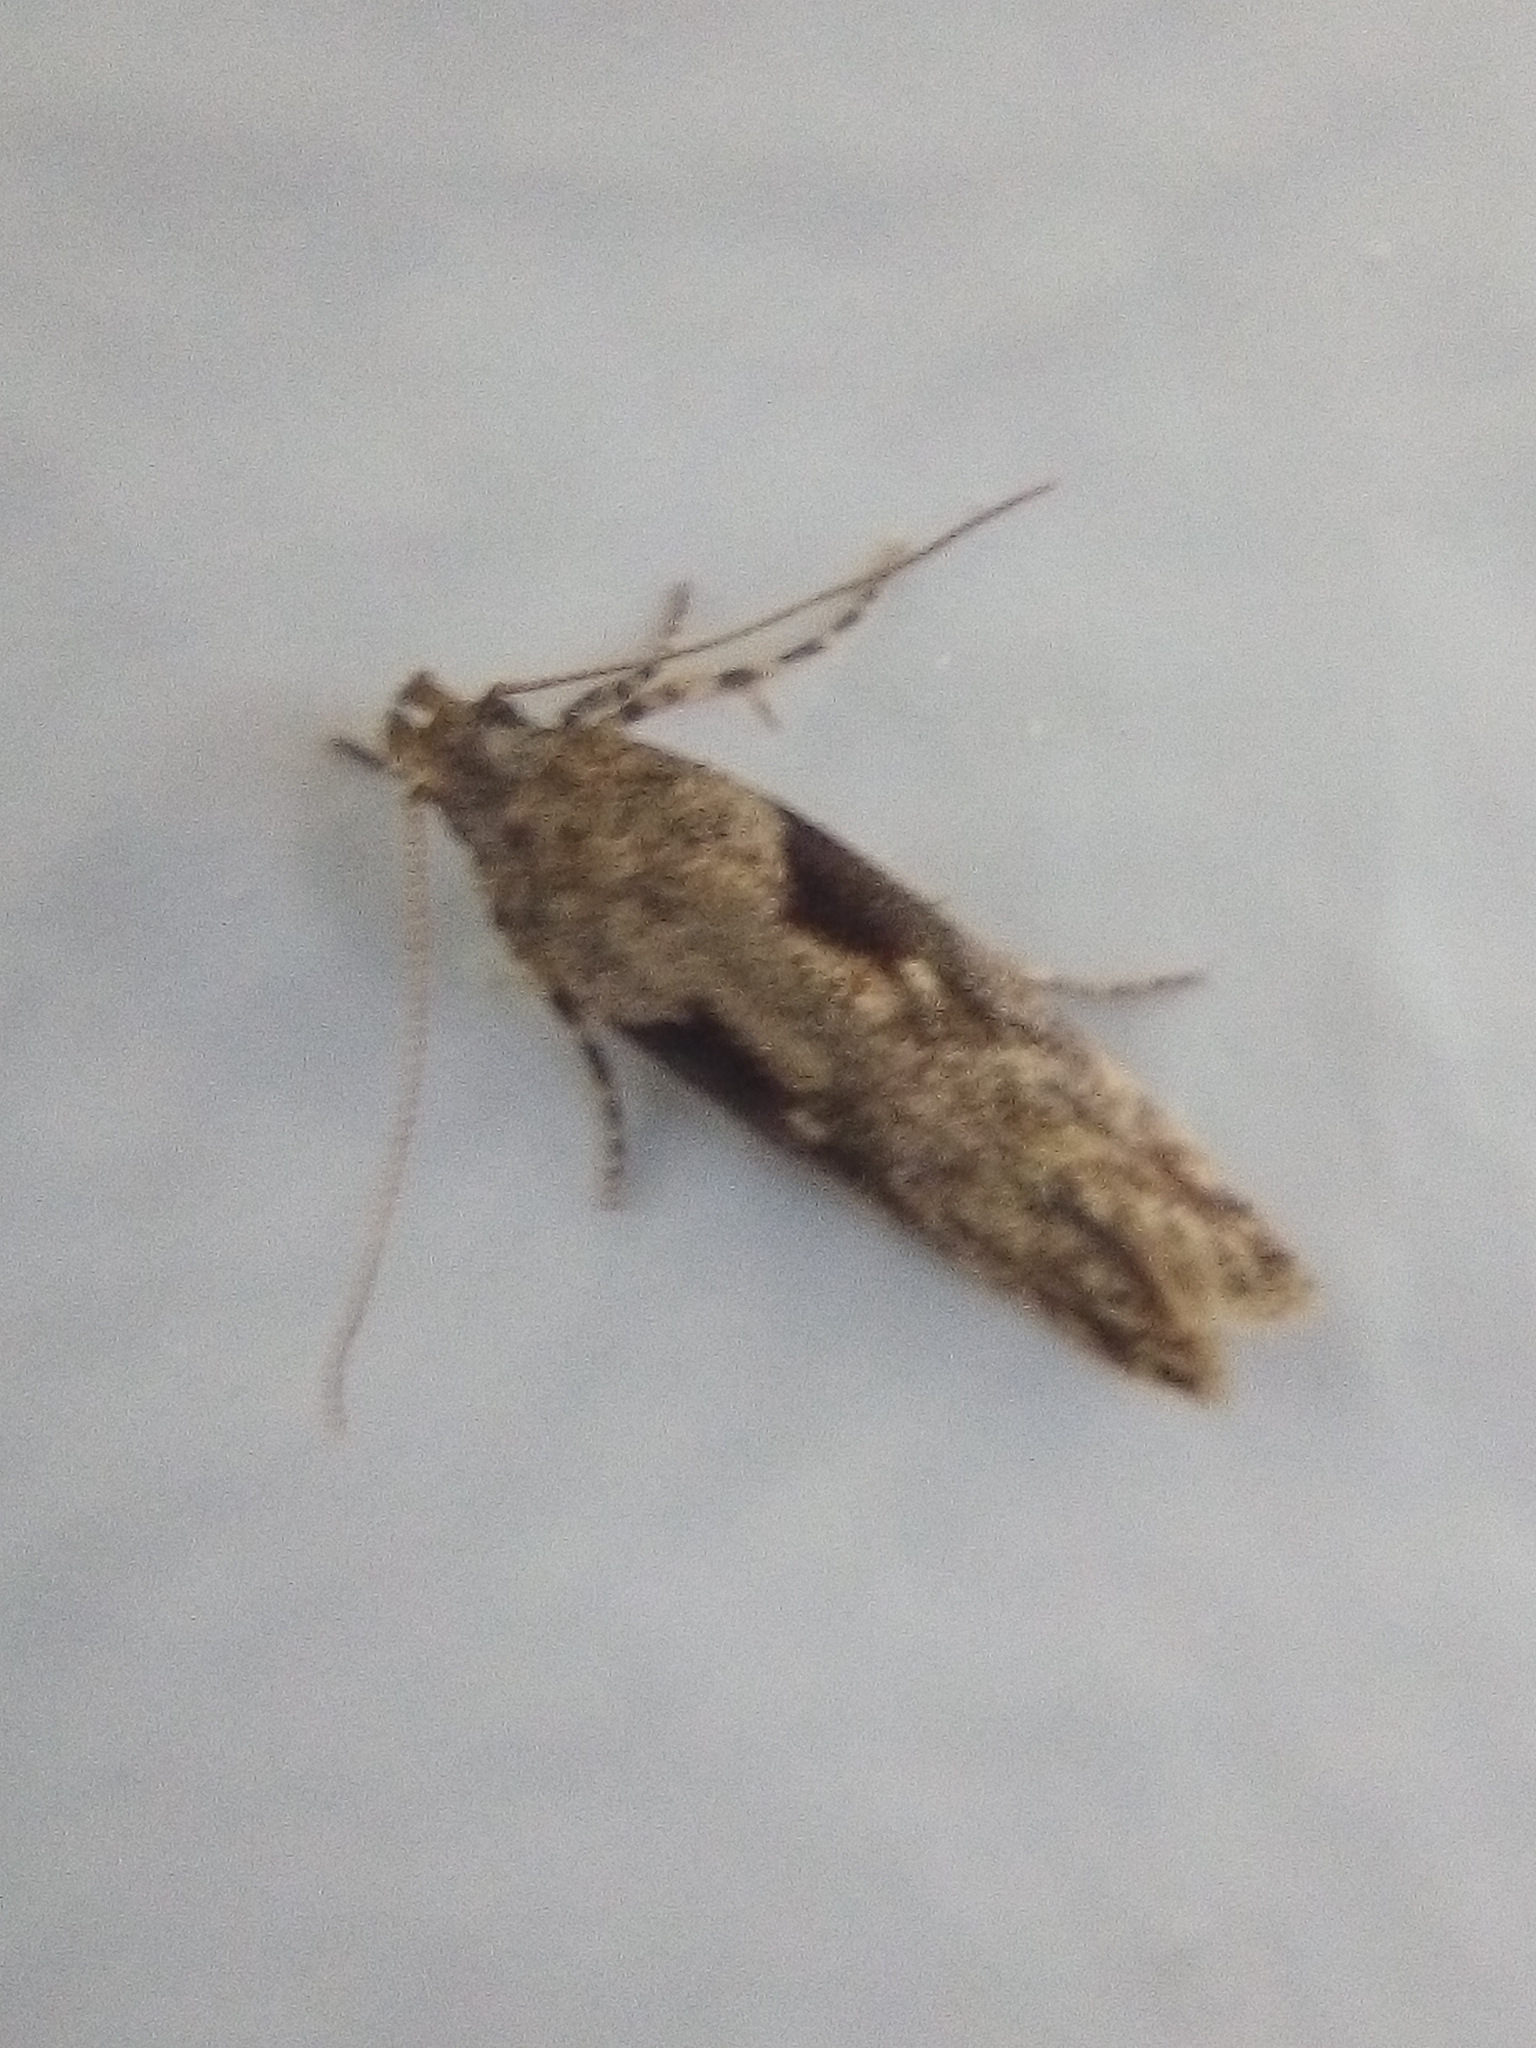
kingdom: Animalia
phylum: Arthropoda
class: Insecta
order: Lepidoptera
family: Gelechiidae
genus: Symmetrischema
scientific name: Symmetrischema tangolias
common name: Moth
